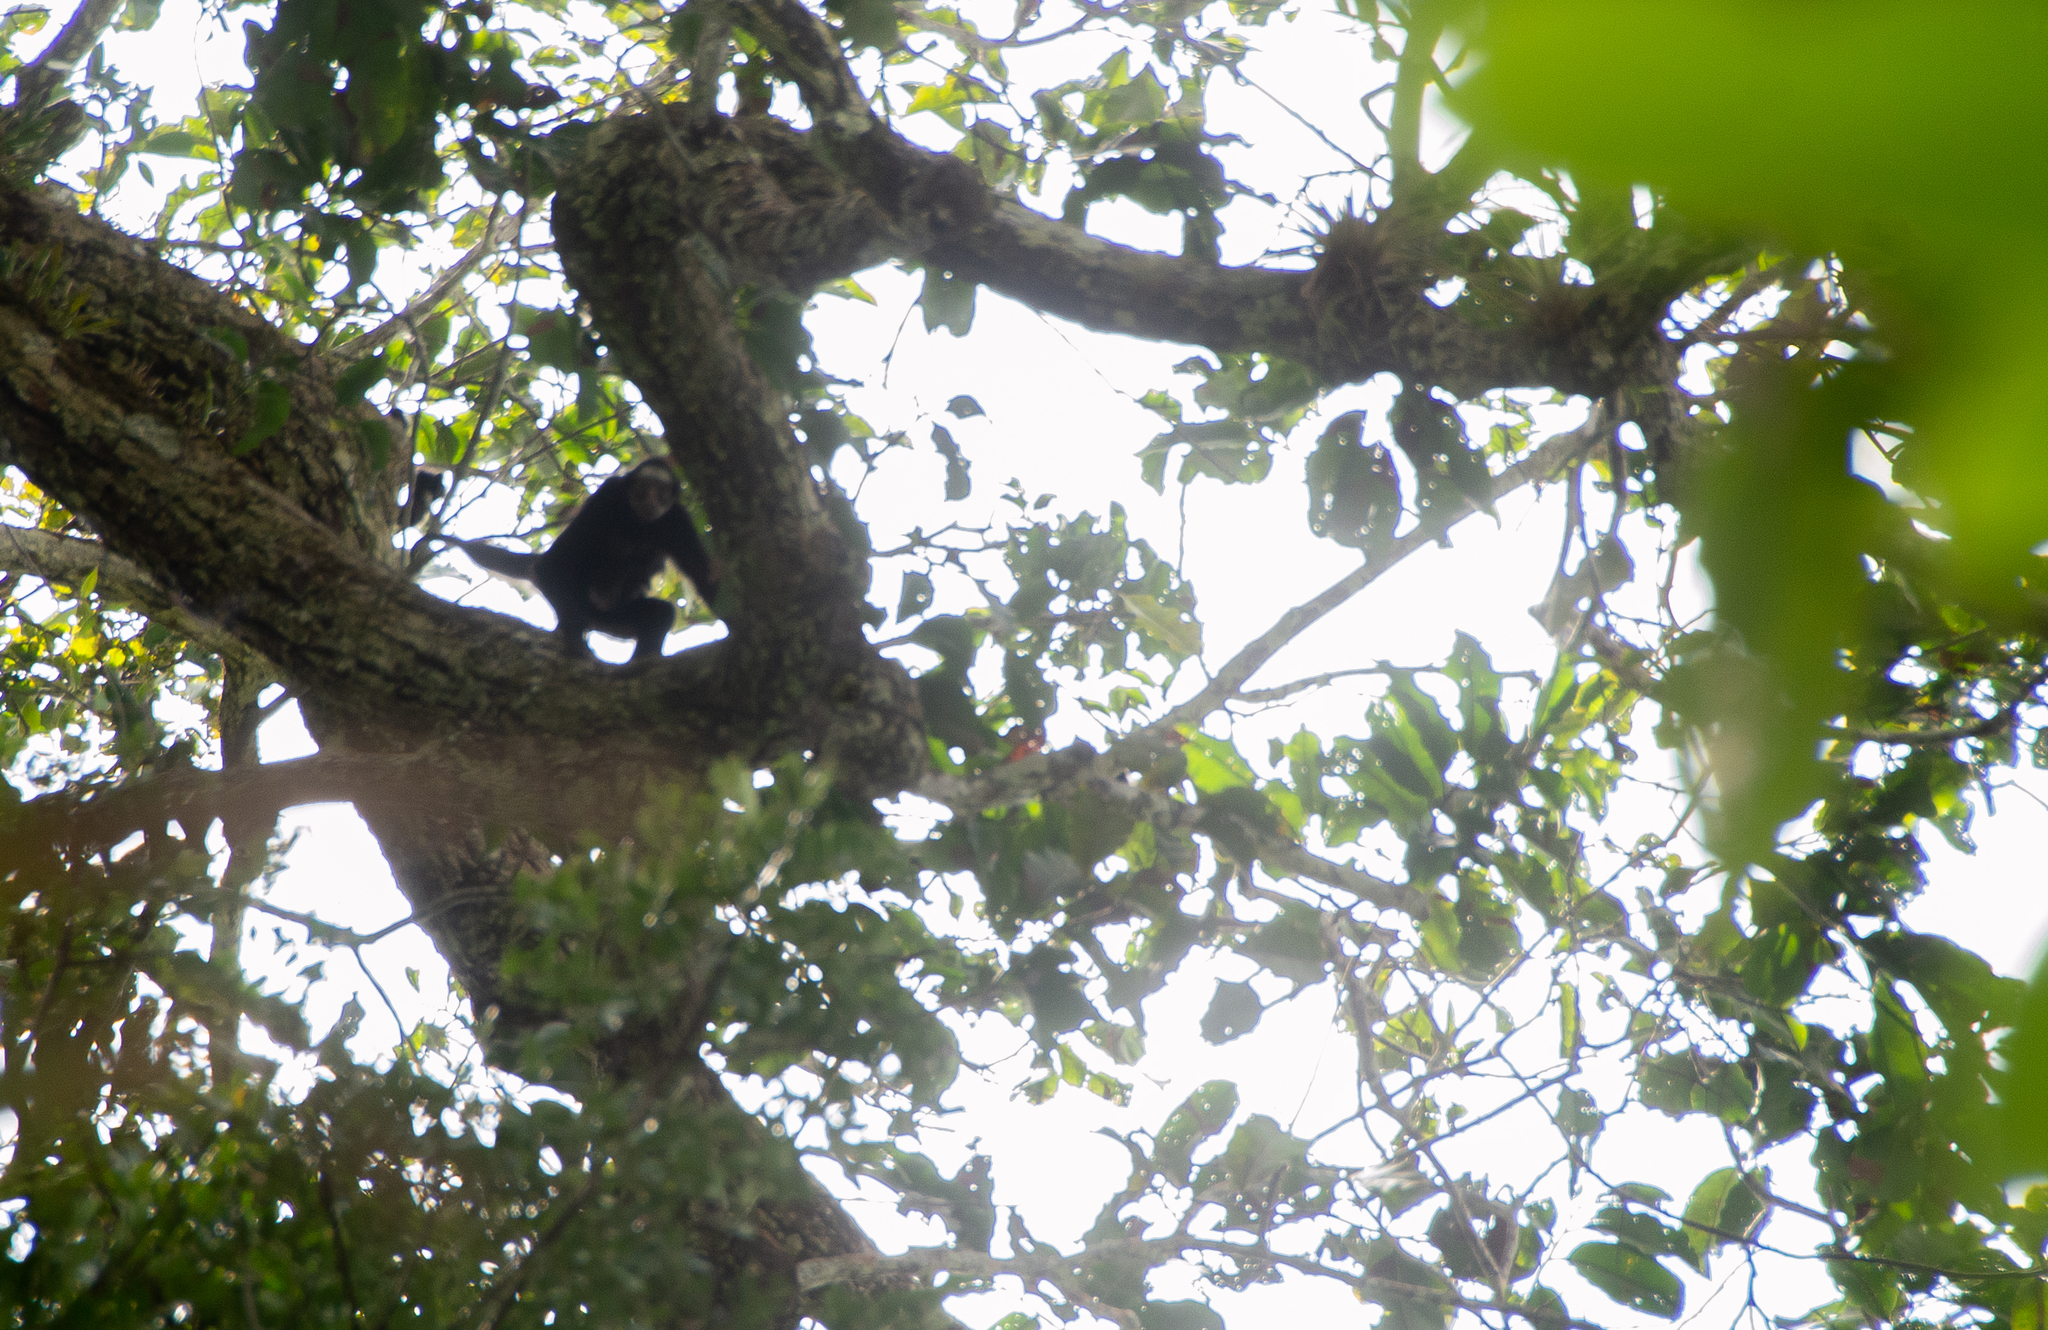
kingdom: Animalia
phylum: Chordata
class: Mammalia
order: Primates
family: Atelidae
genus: Ateles
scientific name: Ateles marginatus
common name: White-cheeked spider monkey
